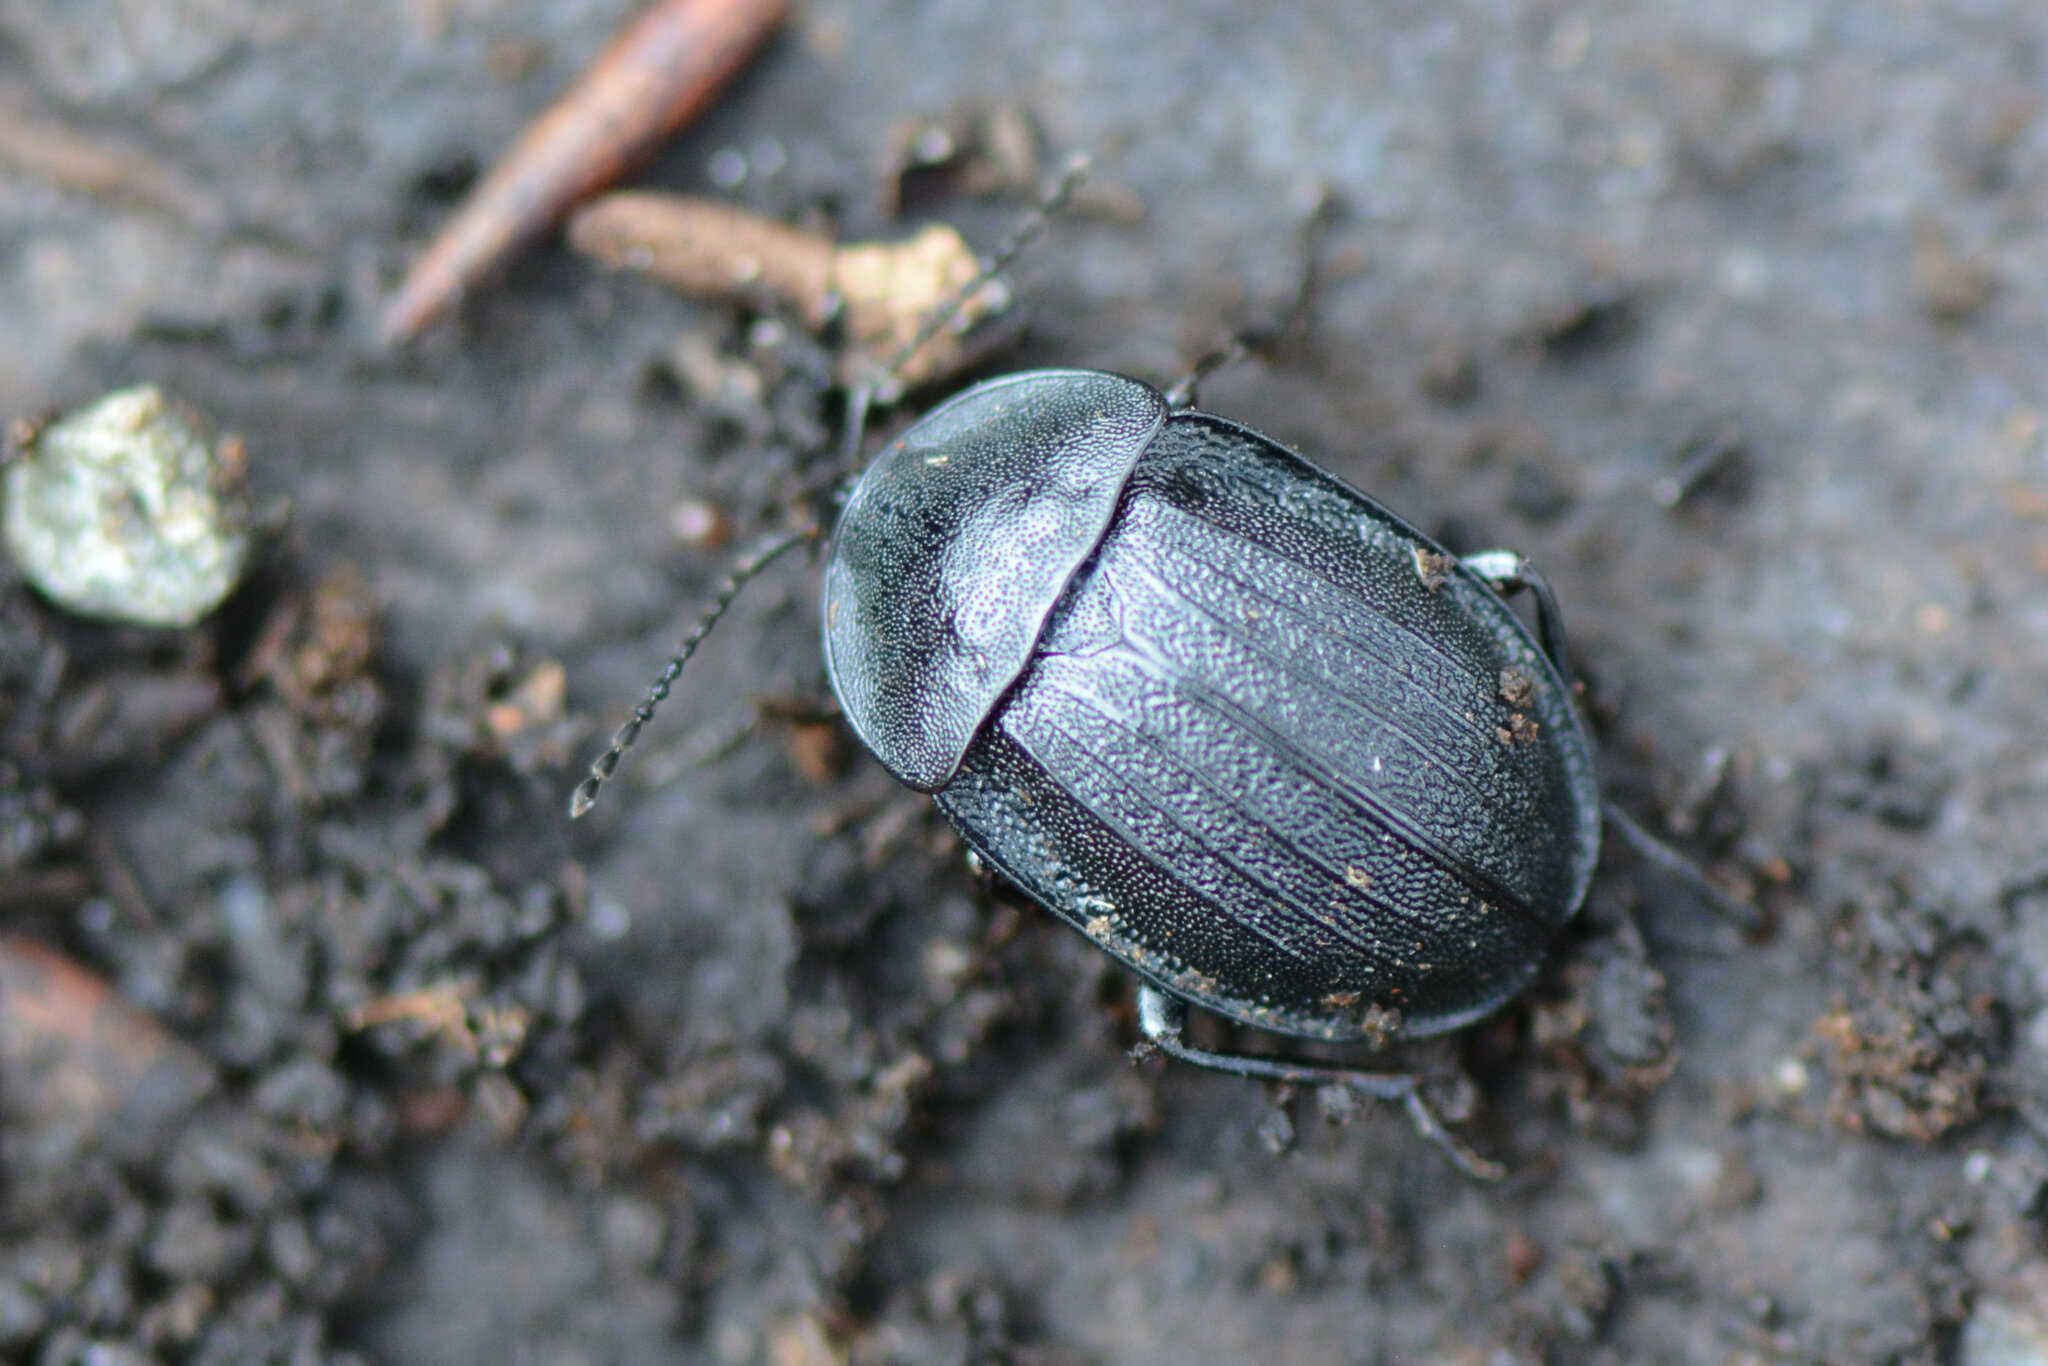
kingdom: Animalia
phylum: Arthropoda
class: Insecta
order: Coleoptera
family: Staphylinidae
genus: Silpha
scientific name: Silpha atrata
